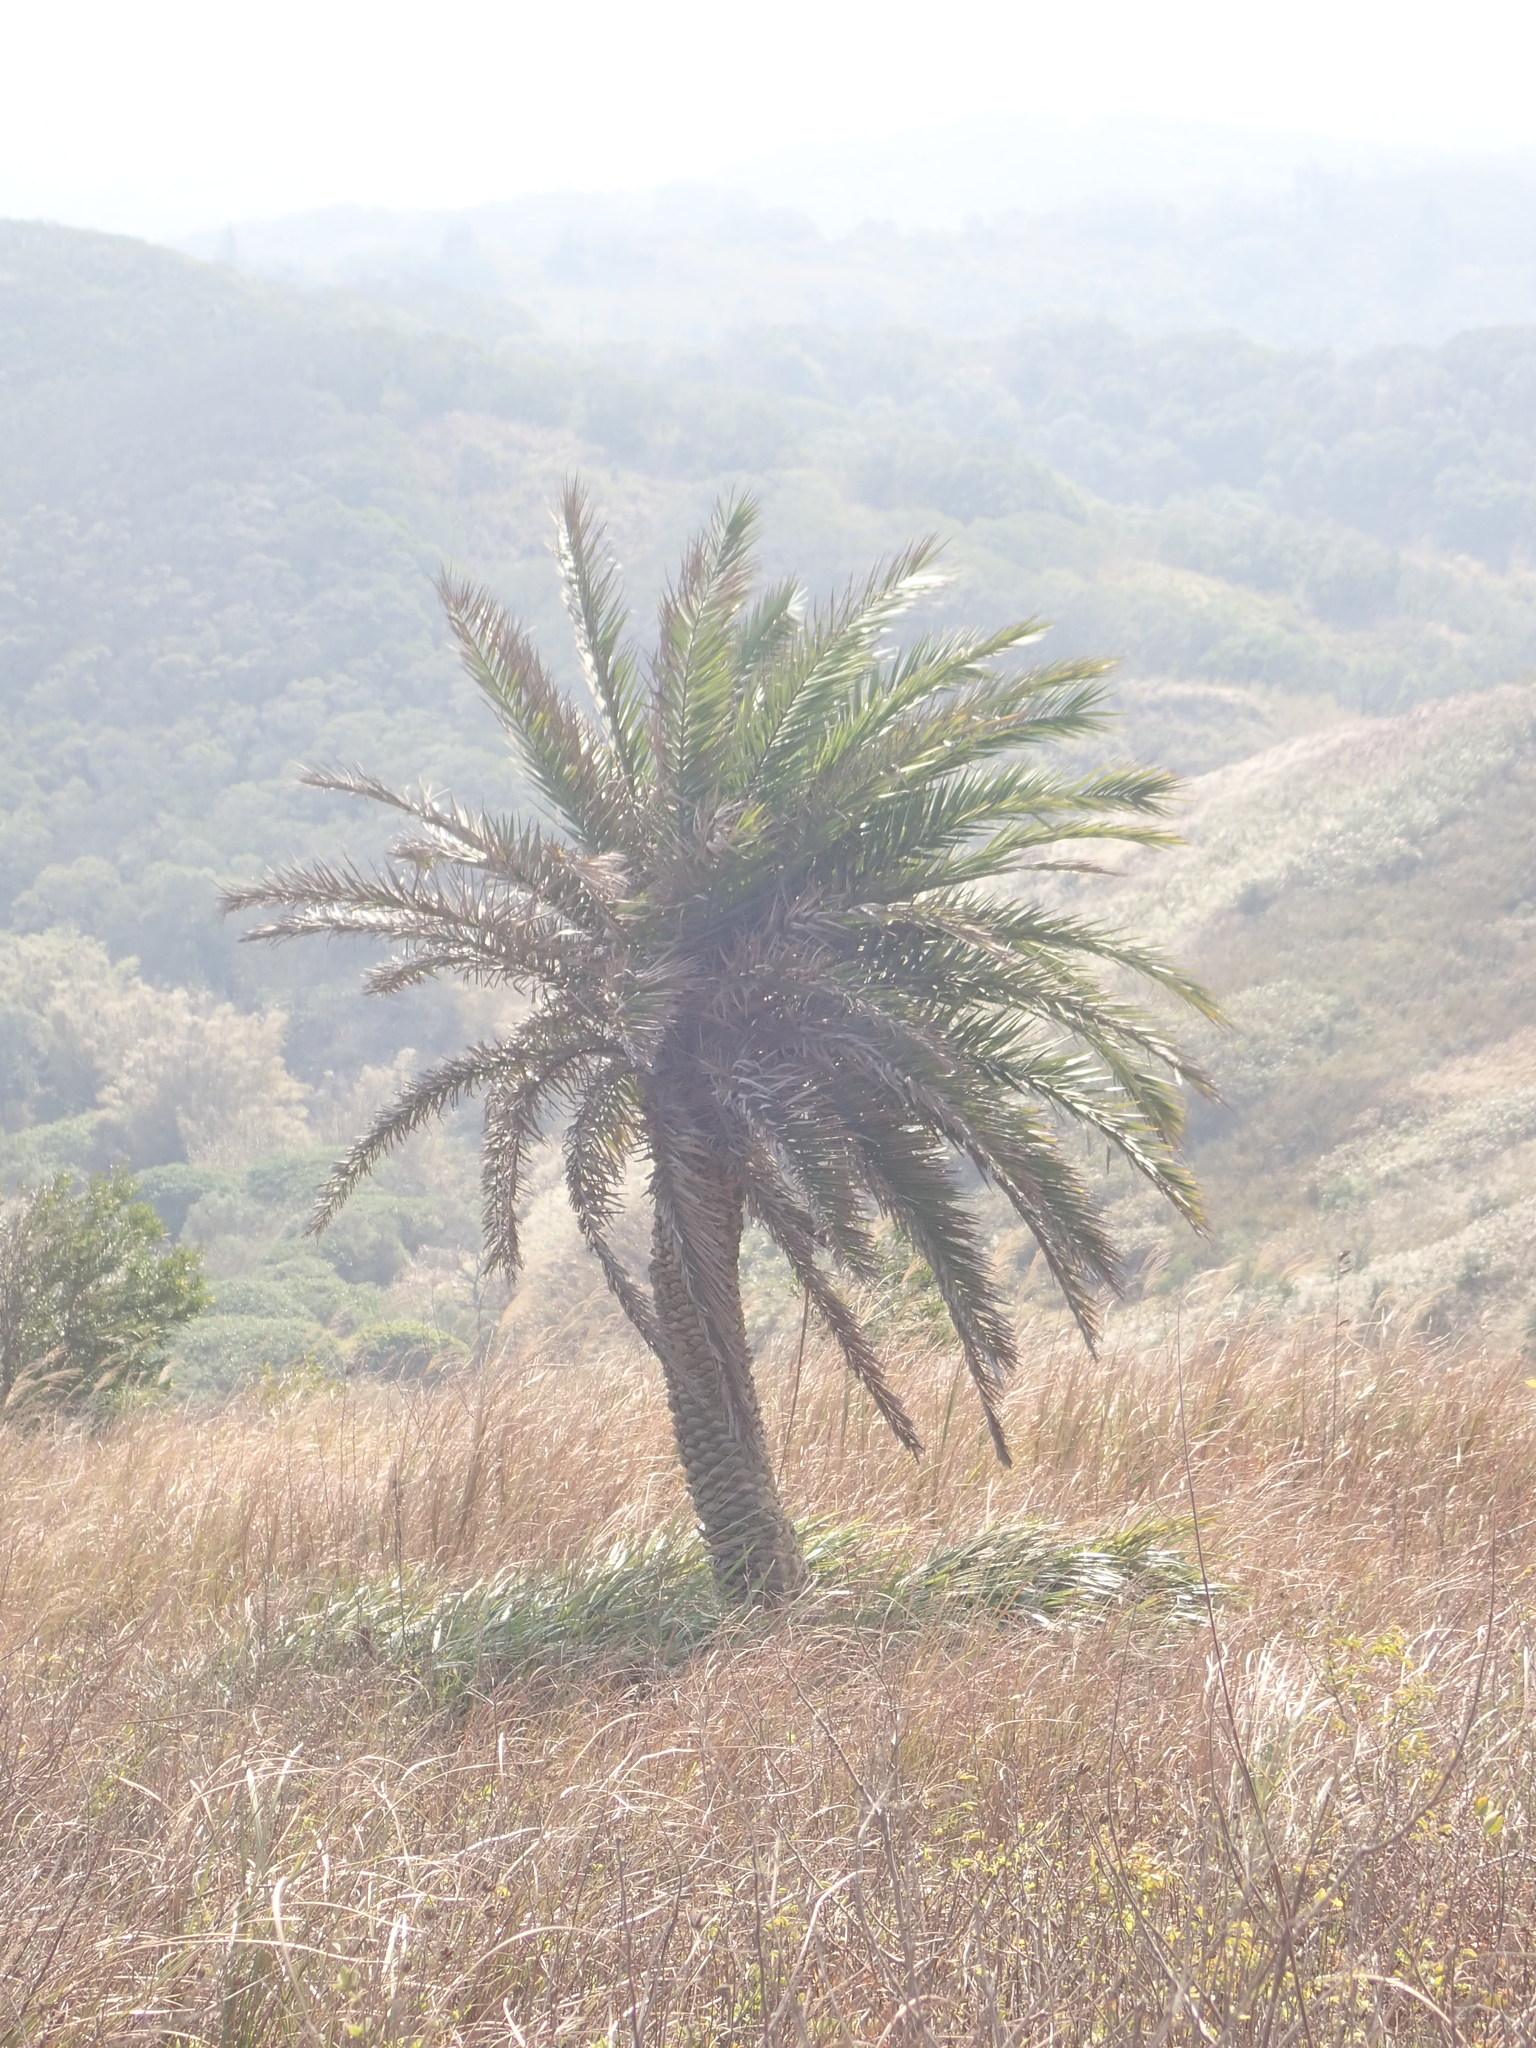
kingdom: Plantae
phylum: Tracheophyta
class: Liliopsida
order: Arecales
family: Arecaceae
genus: Phoenix
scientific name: Phoenix loureiroi
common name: Loureiro's palm
